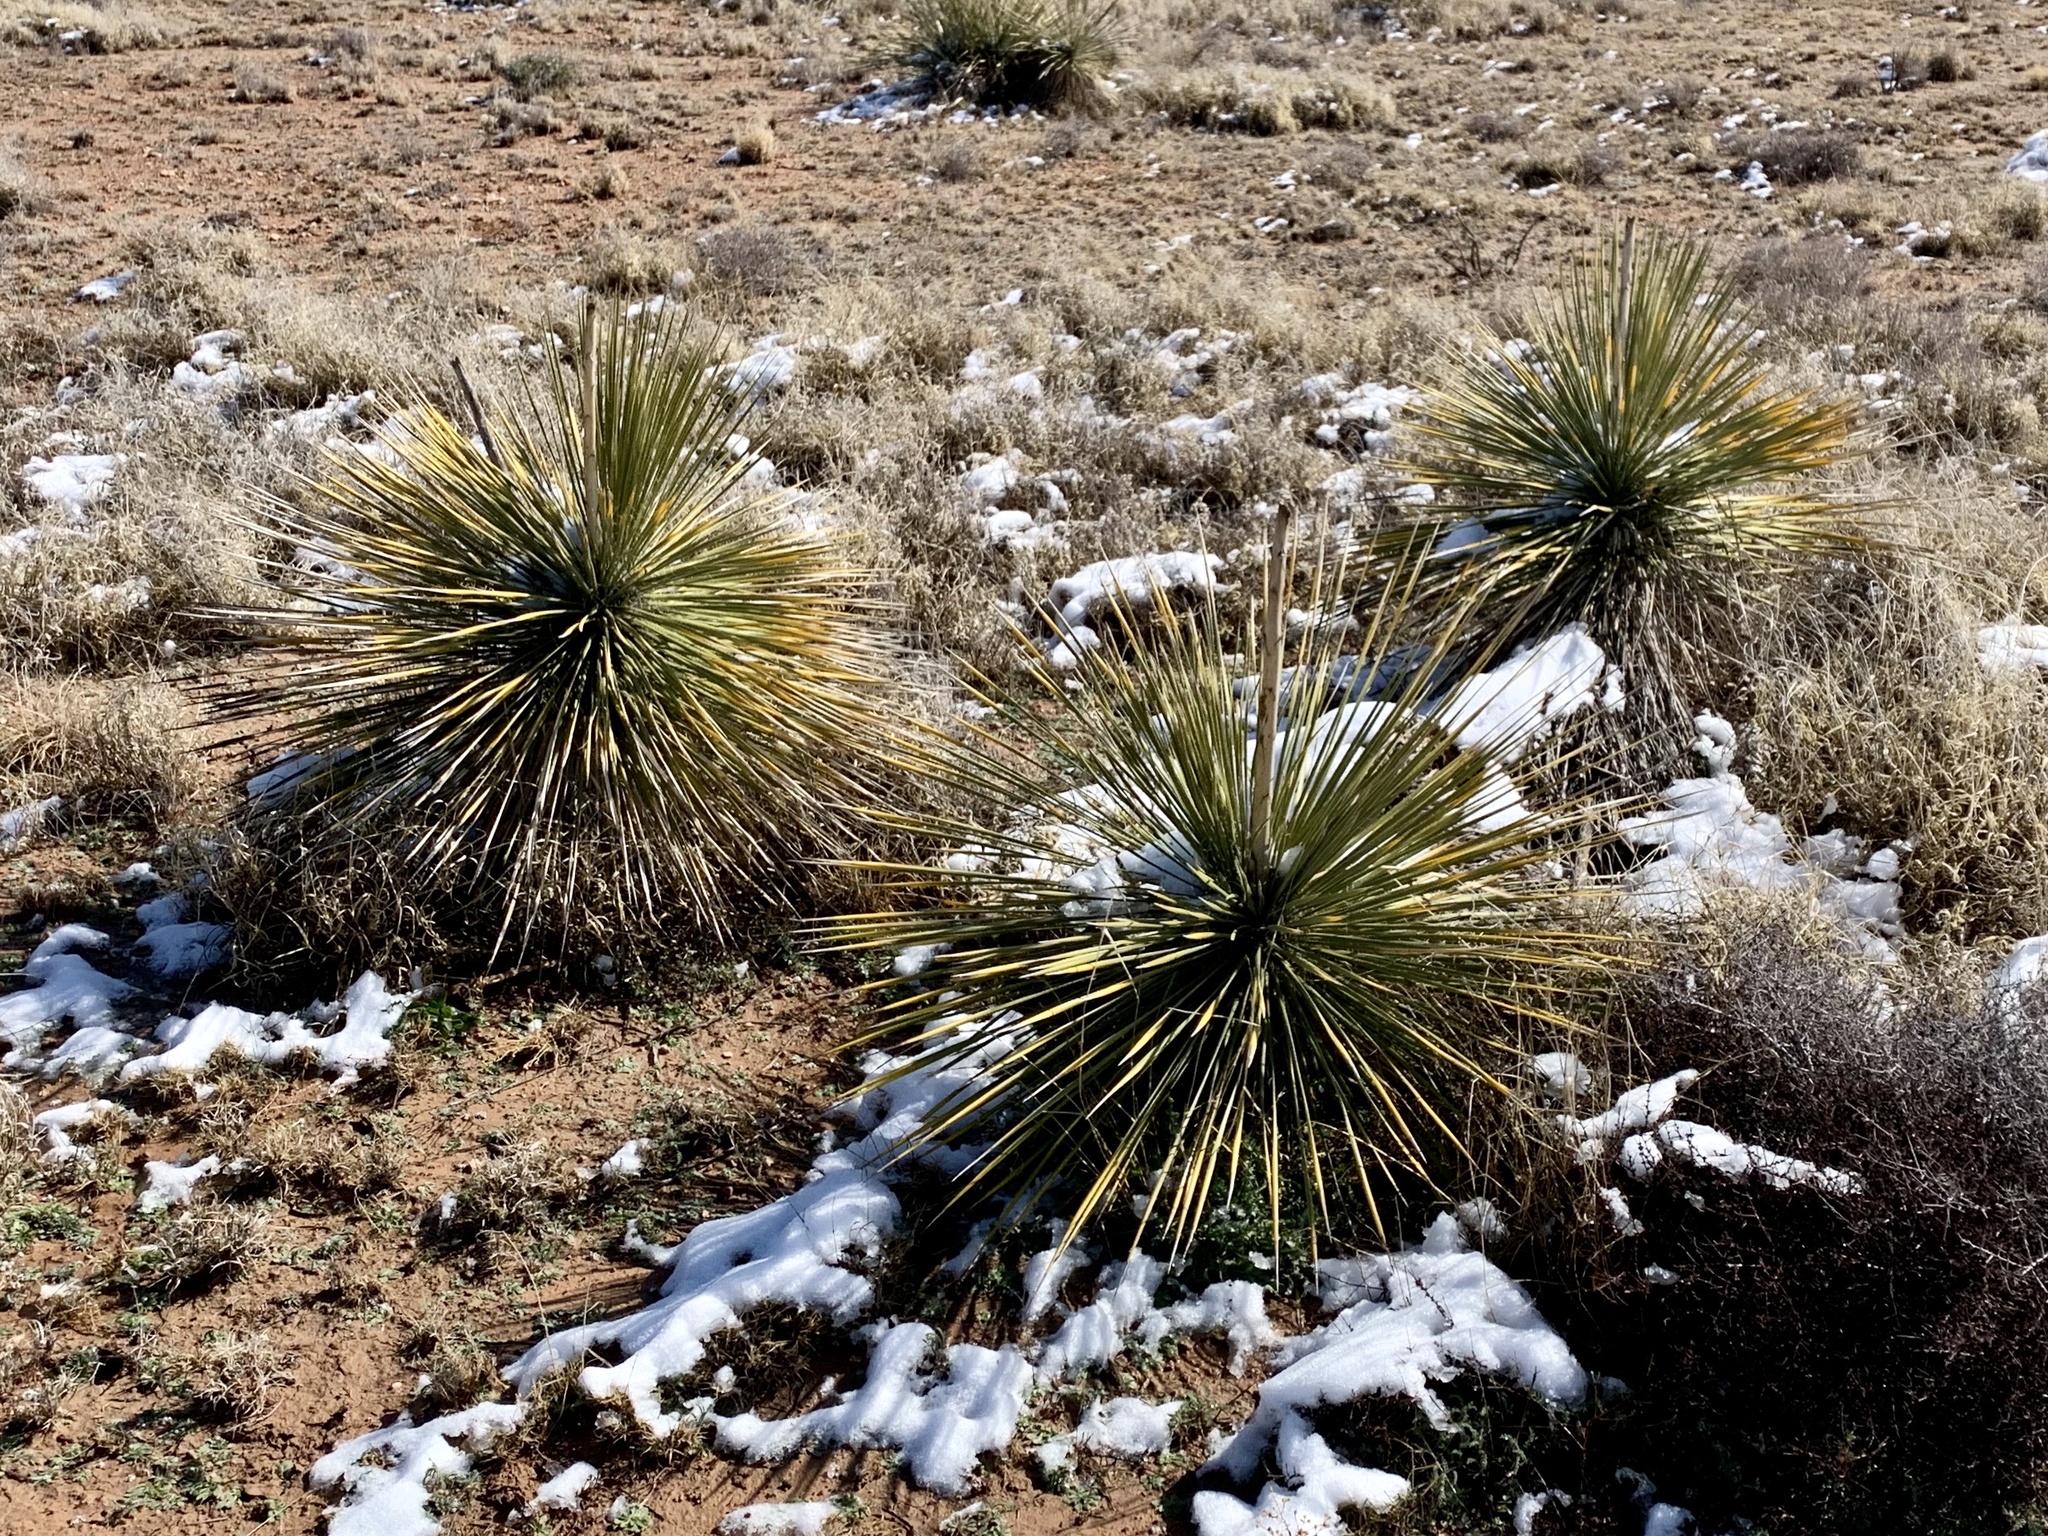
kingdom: Plantae
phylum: Tracheophyta
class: Liliopsida
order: Asparagales
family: Asparagaceae
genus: Yucca
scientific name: Yucca elata
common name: Palmella
